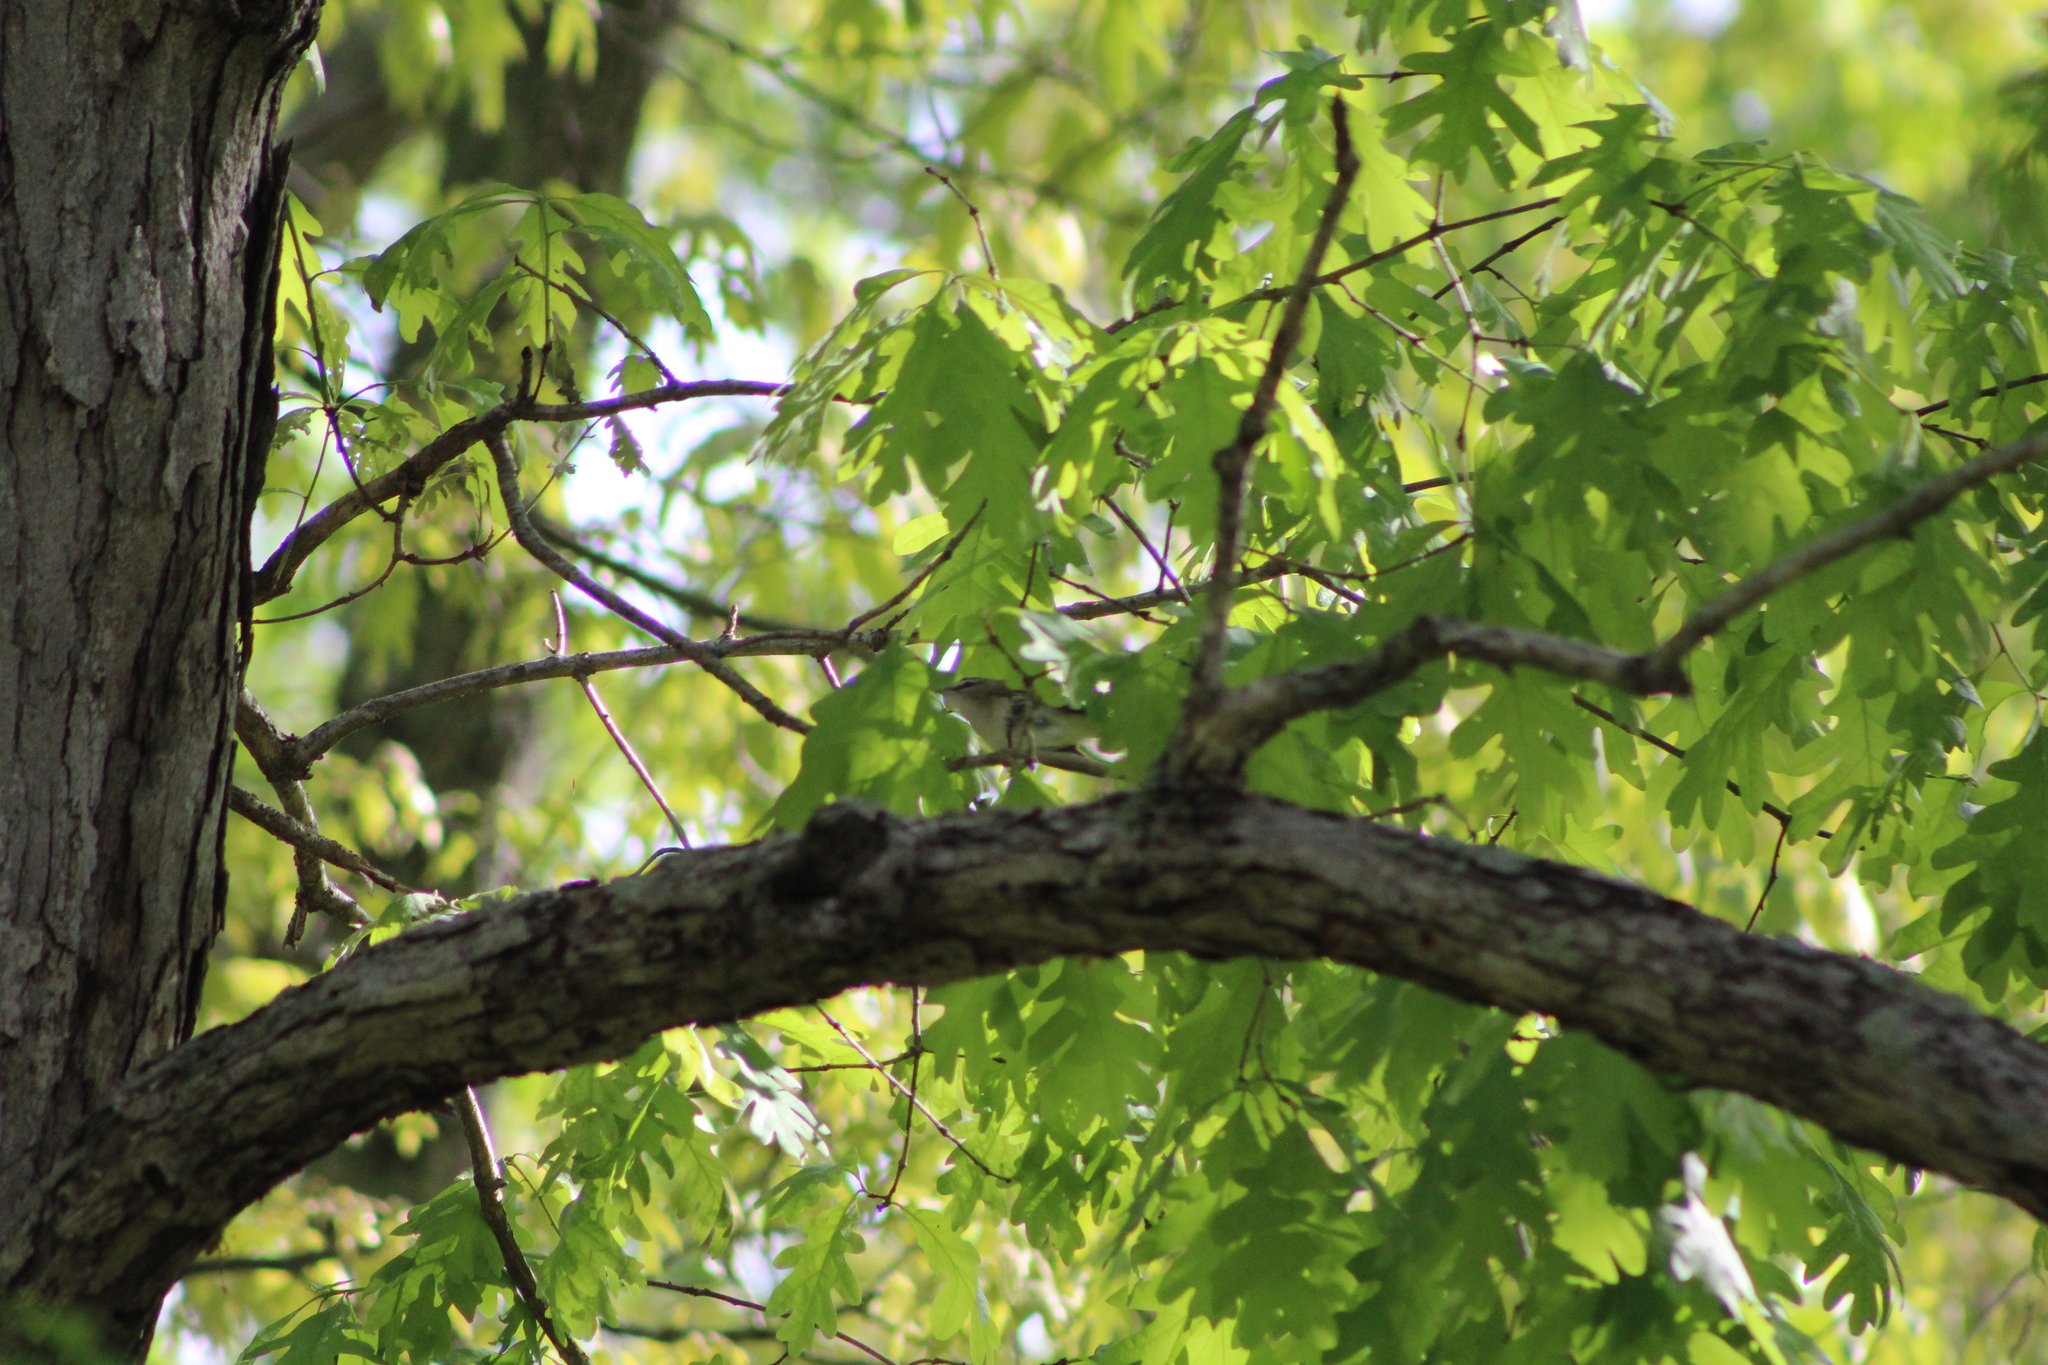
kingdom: Animalia
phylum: Chordata
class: Aves
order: Passeriformes
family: Vireonidae
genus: Vireo
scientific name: Vireo olivaceus
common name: Red-eyed vireo
